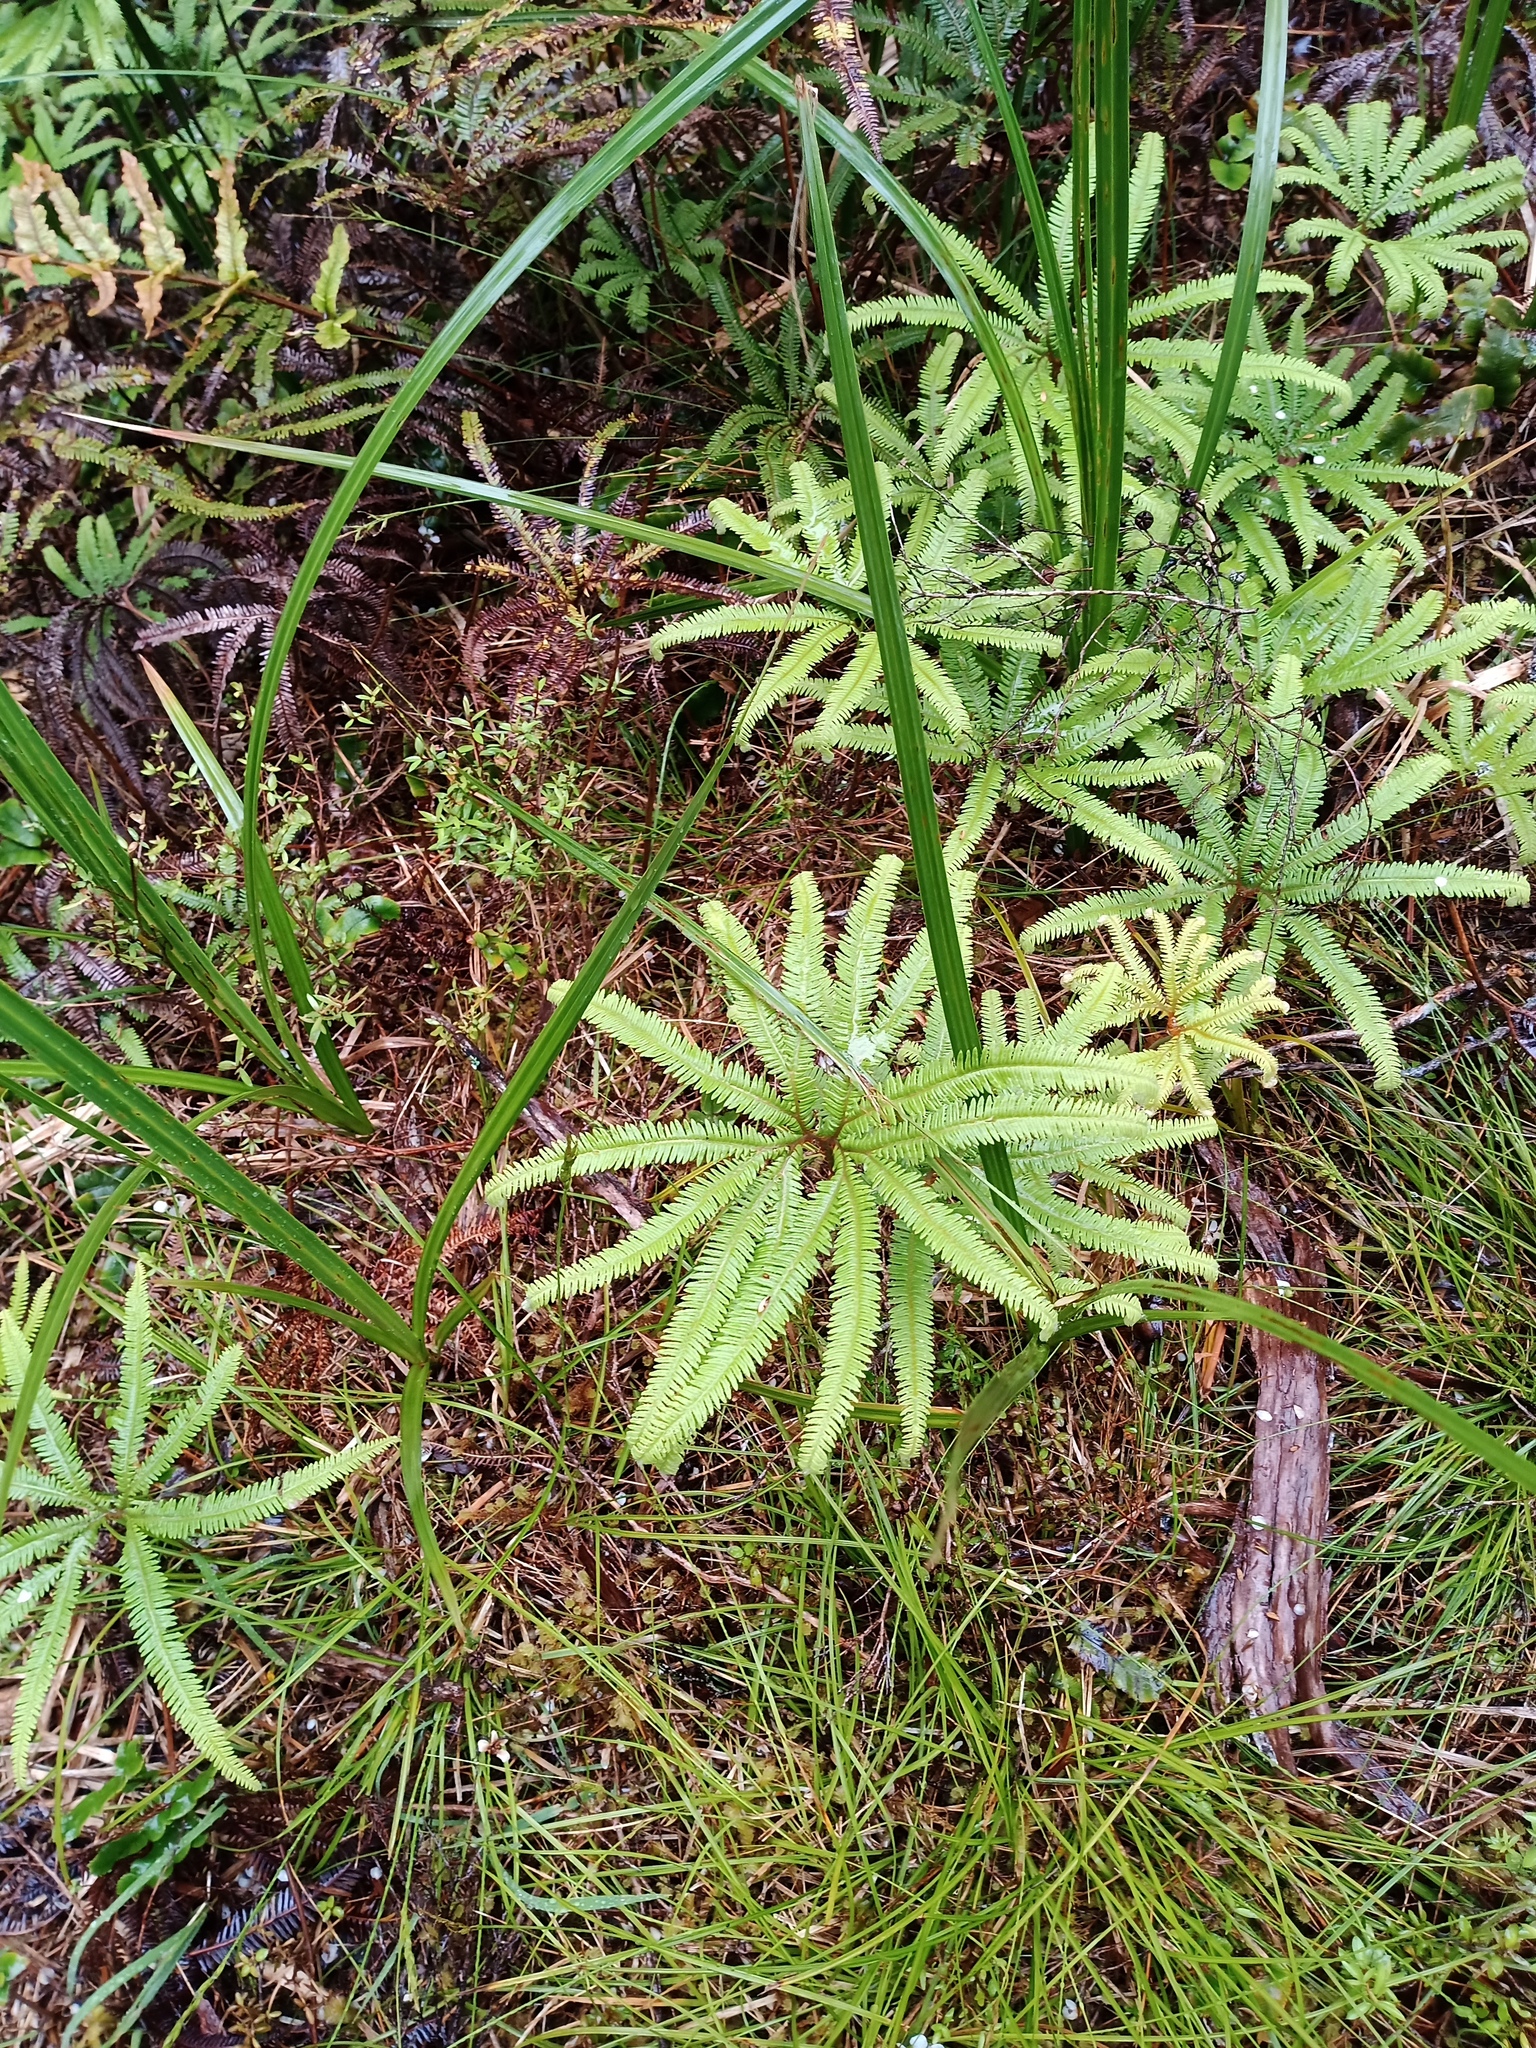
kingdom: Plantae
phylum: Tracheophyta
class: Polypodiopsida
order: Gleicheniales
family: Gleicheniaceae
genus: Sticherus
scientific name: Sticherus cunninghamii
